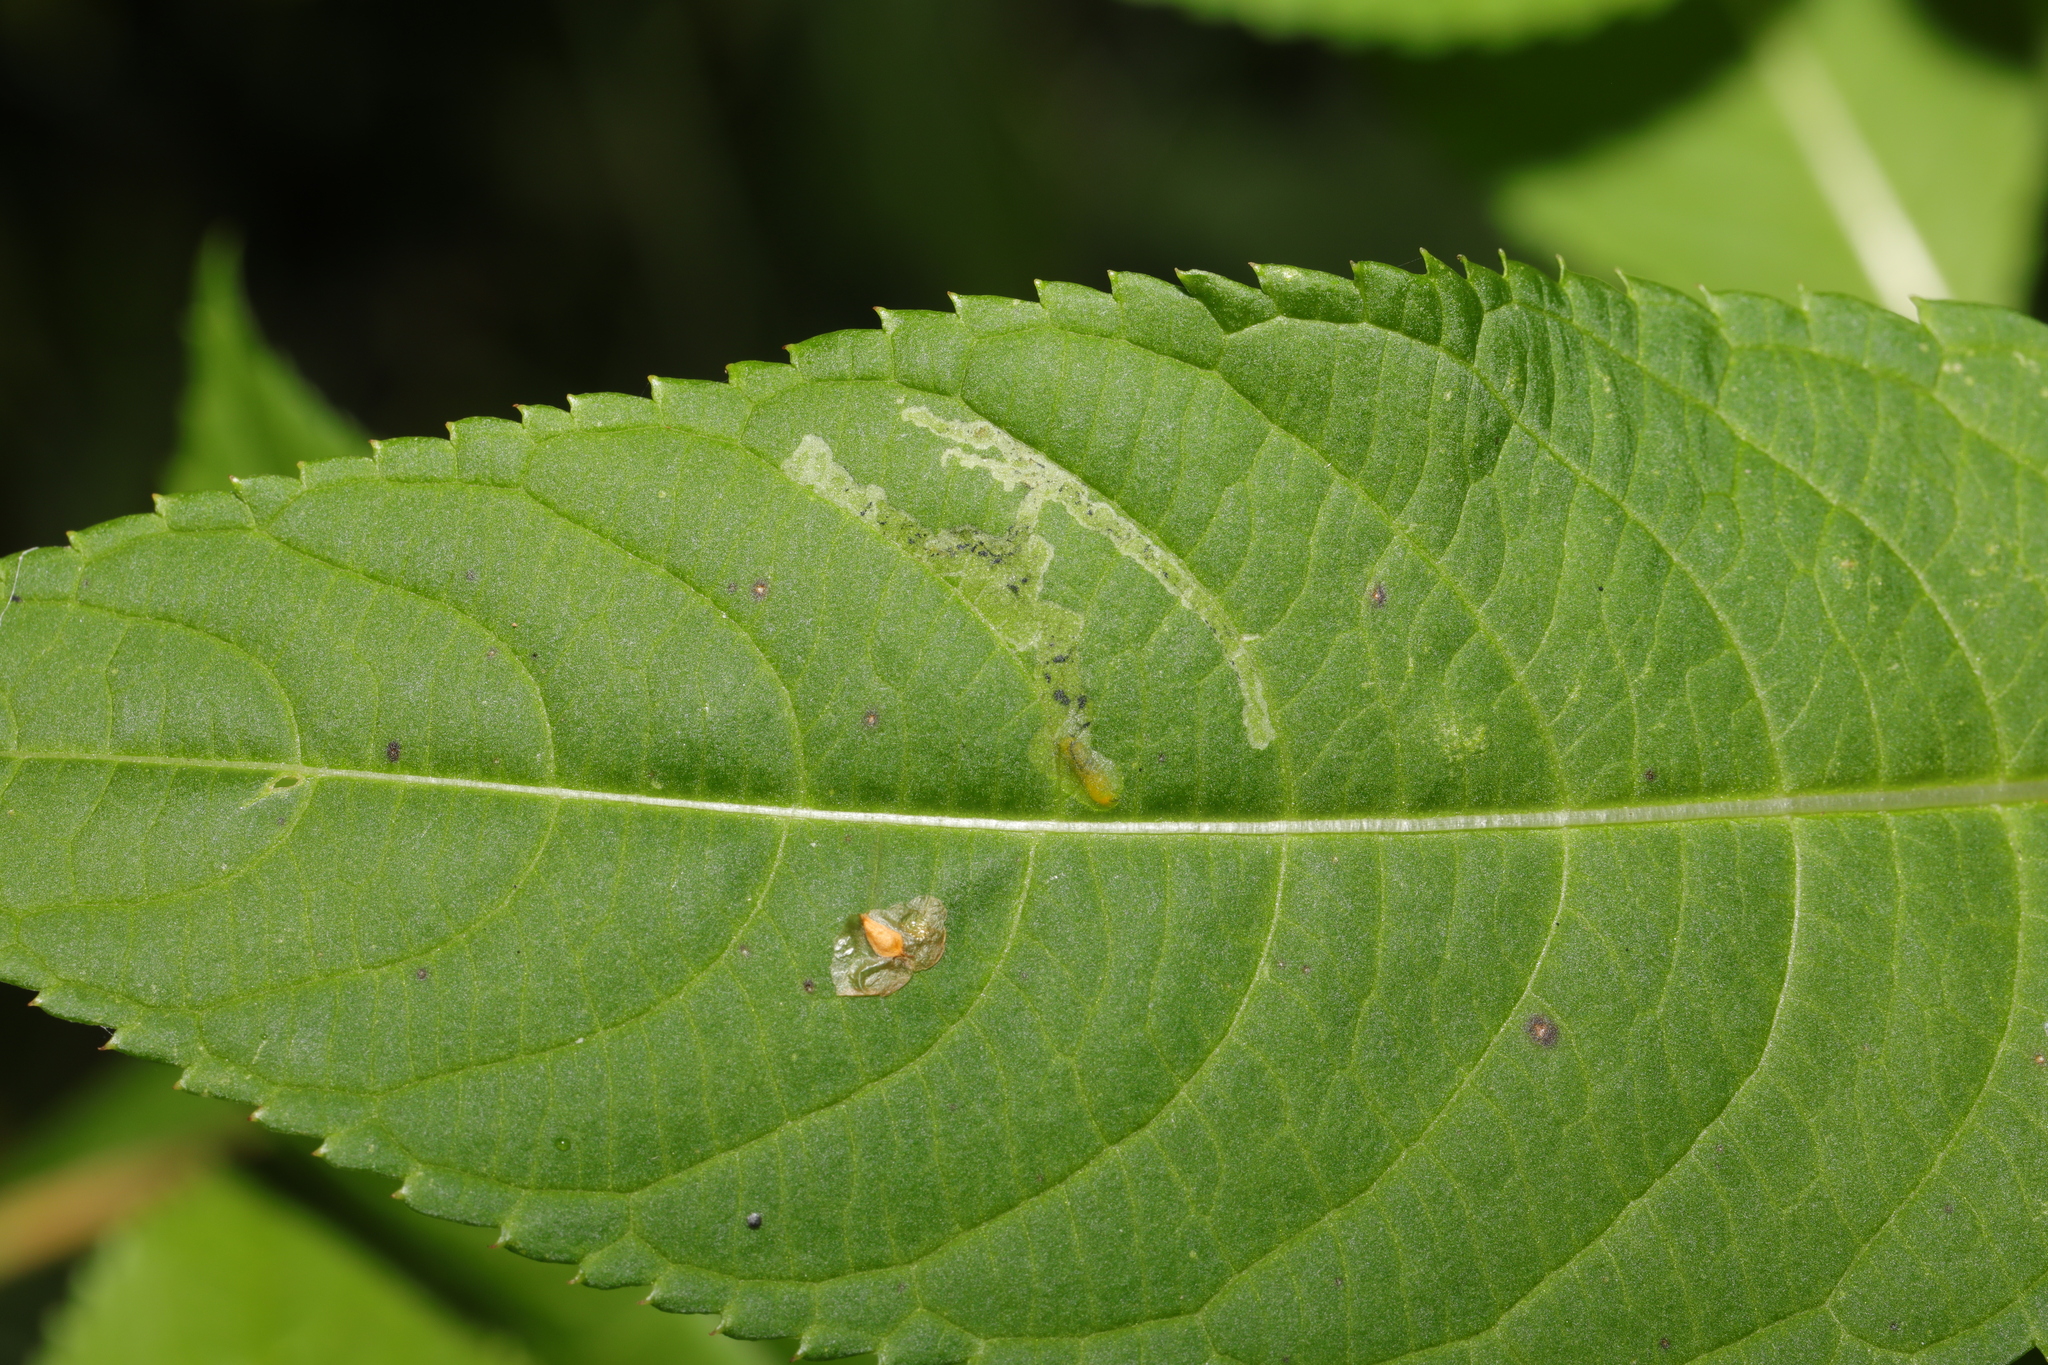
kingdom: Animalia
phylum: Arthropoda
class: Insecta
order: Diptera
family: Agromyzidae
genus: Phytoliriomyza
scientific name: Phytoliriomyza melampyga
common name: Jewelweed leaf-miner fly
